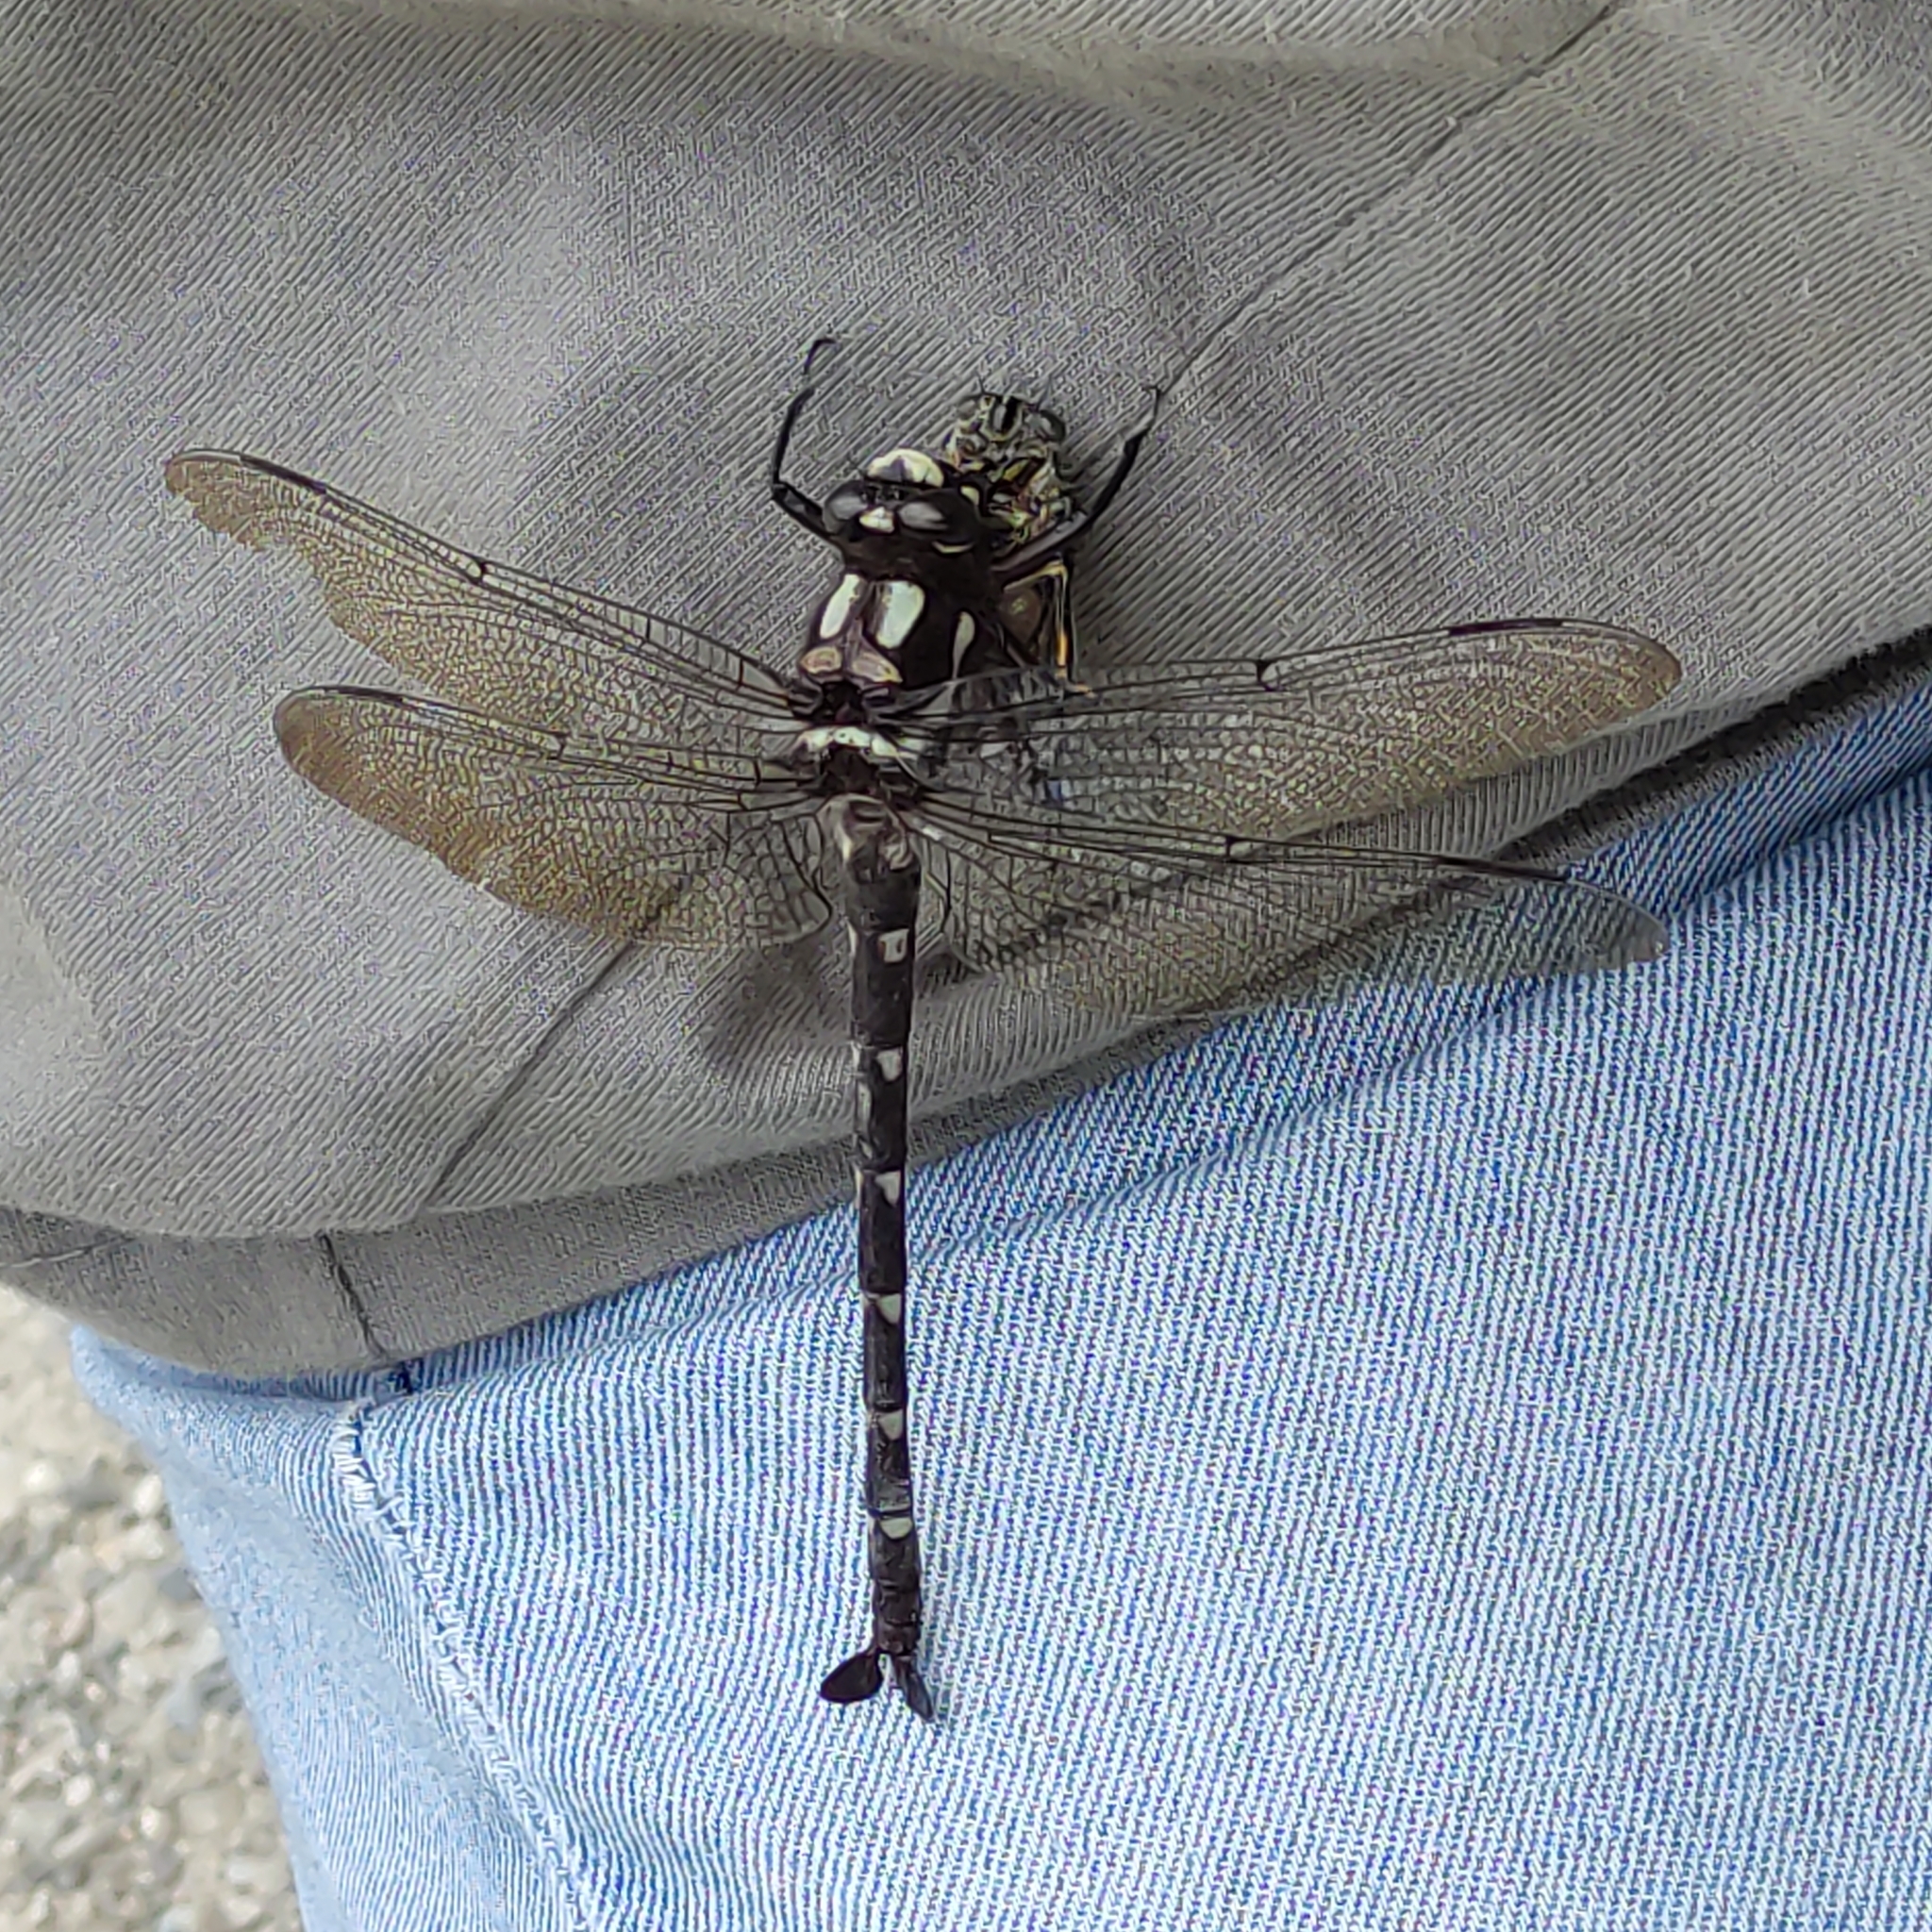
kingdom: Animalia
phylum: Arthropoda
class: Insecta
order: Odonata
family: Petaluridae
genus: Uropetala
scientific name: Uropetala carovei
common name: Bush giant dragonfly
